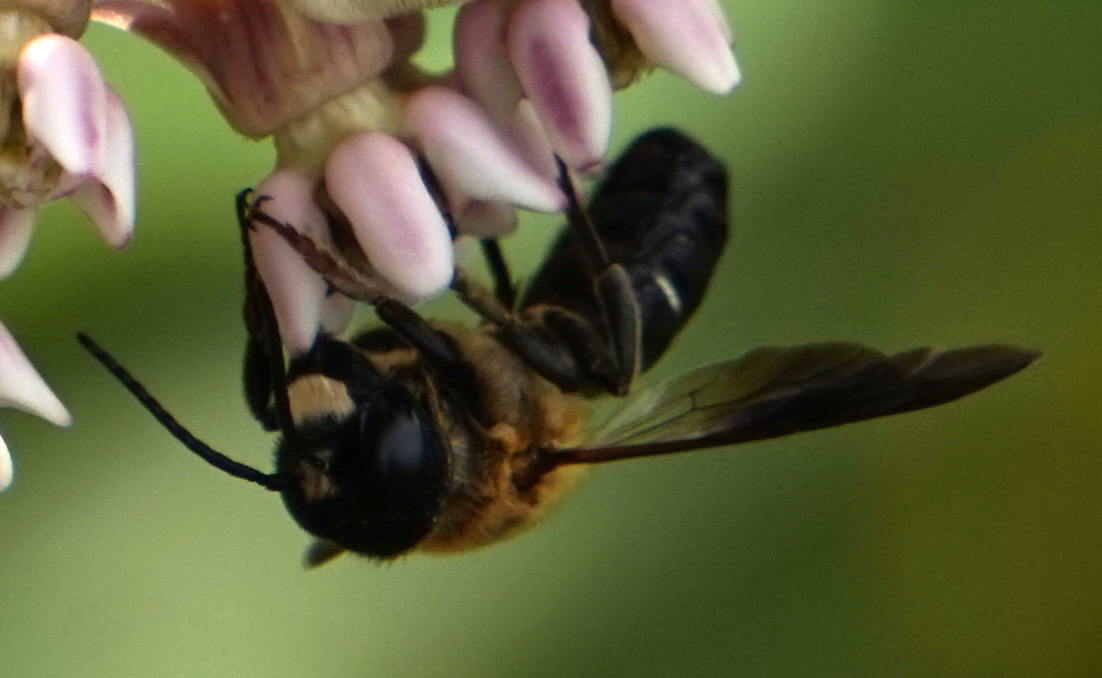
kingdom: Animalia
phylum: Arthropoda
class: Insecta
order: Hymenoptera
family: Megachilidae
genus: Megachile
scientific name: Megachile sculpturalis
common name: Sculptured resin bee
